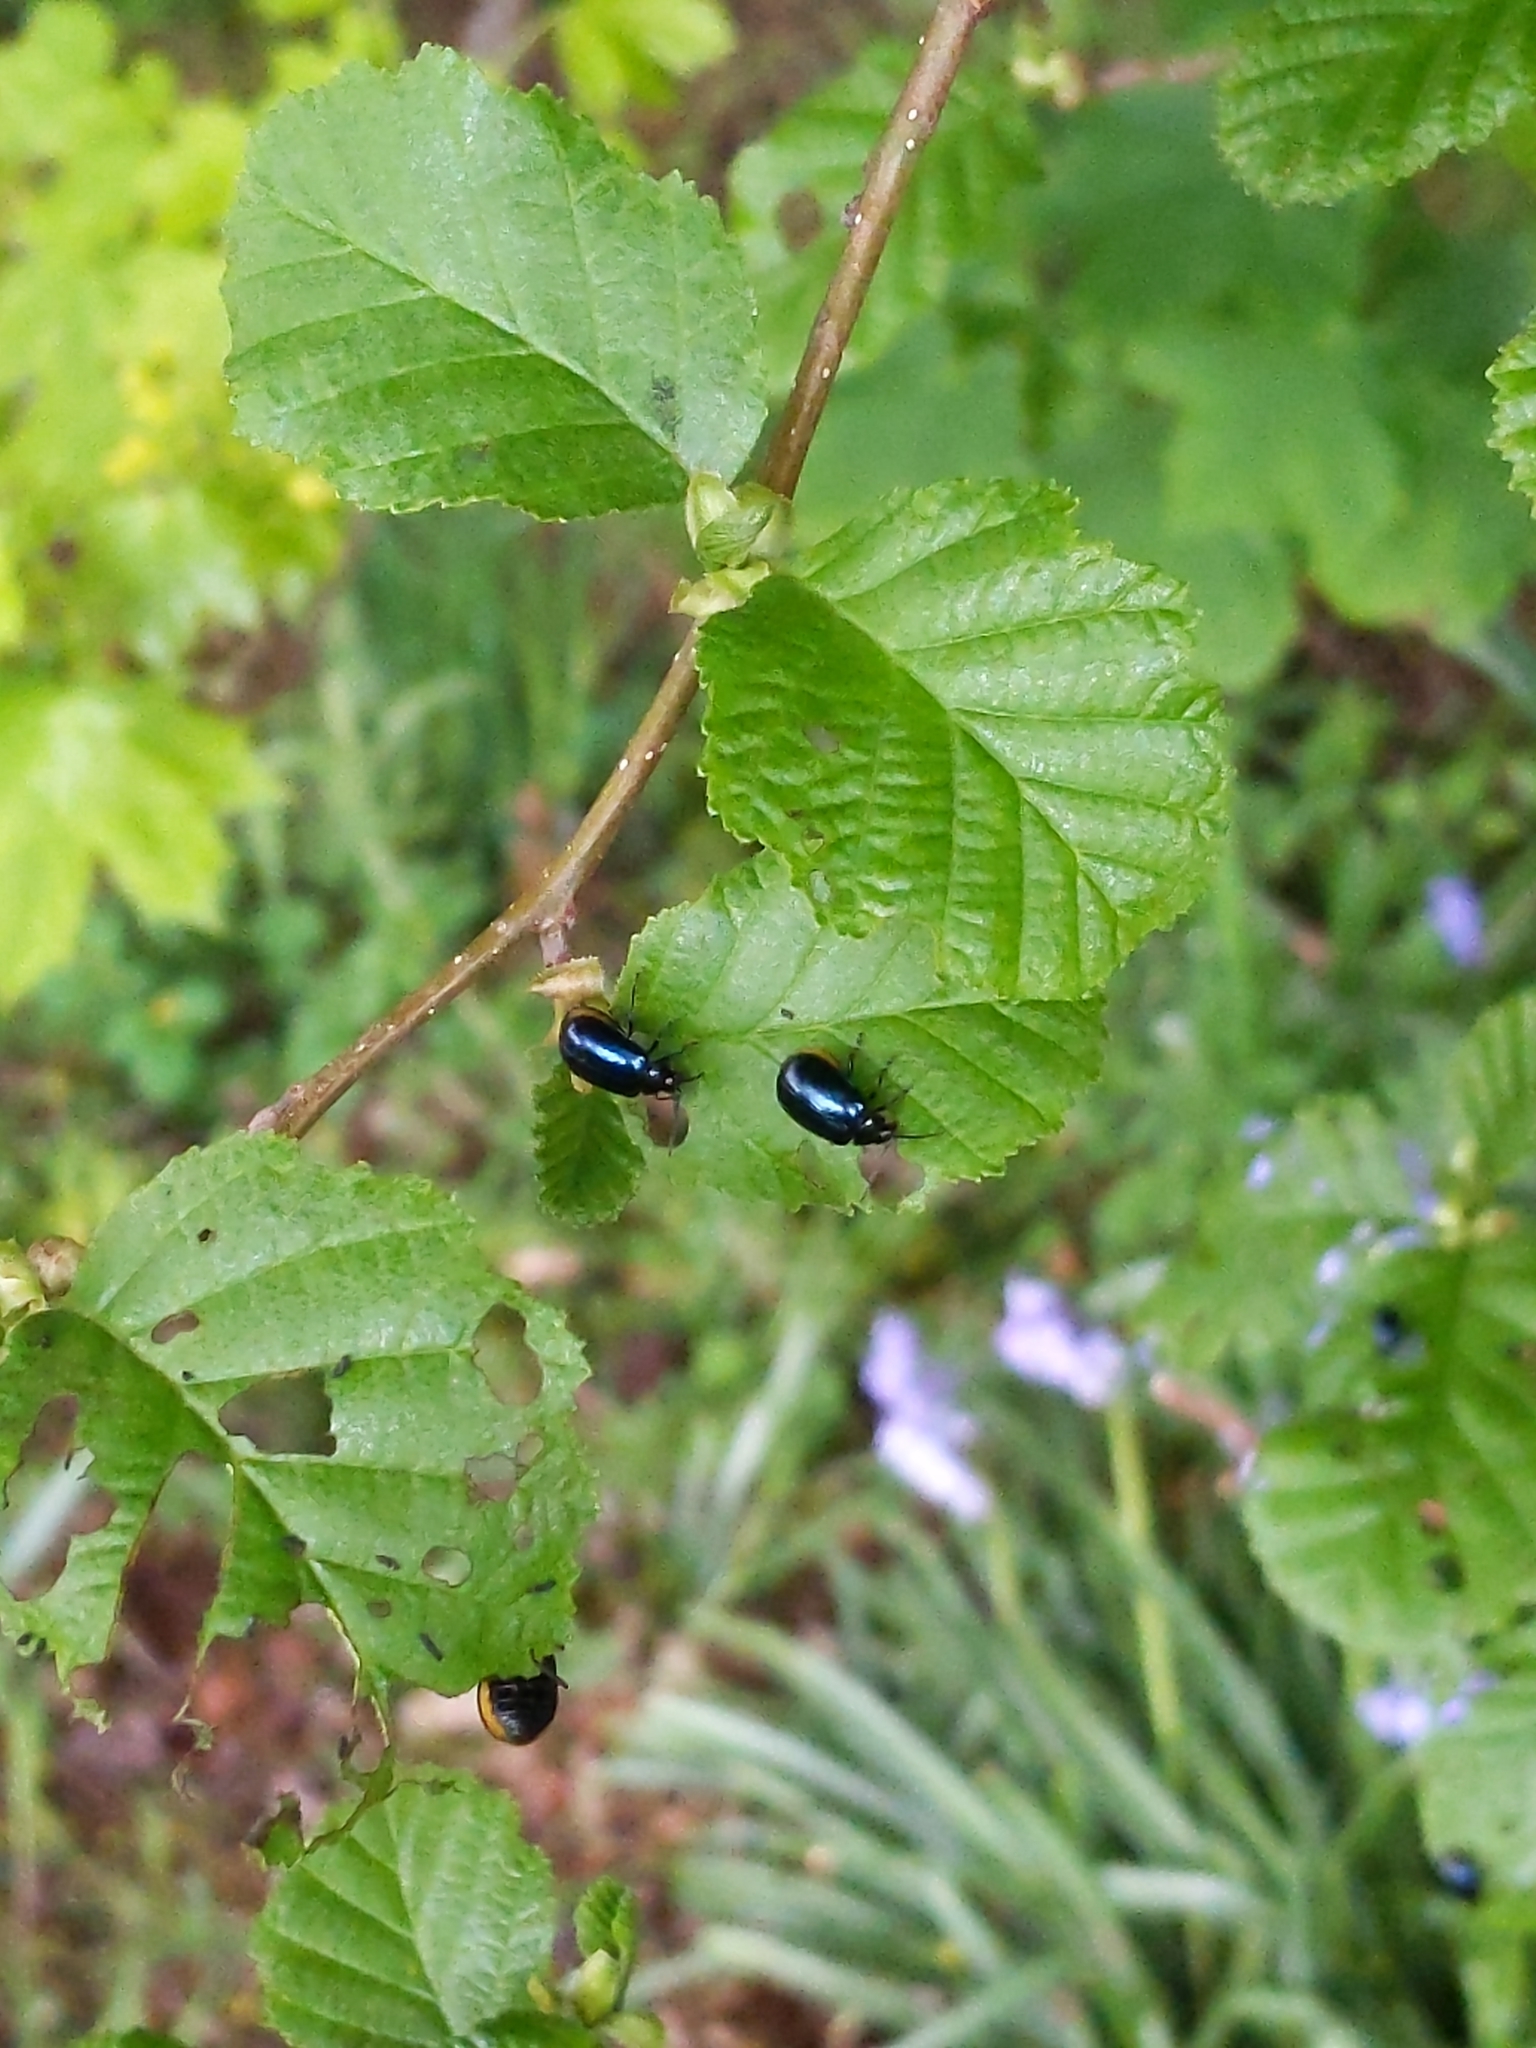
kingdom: Animalia
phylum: Arthropoda
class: Insecta
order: Coleoptera
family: Chrysomelidae
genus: Agelastica
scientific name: Agelastica alni
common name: Alder leaf beetle
